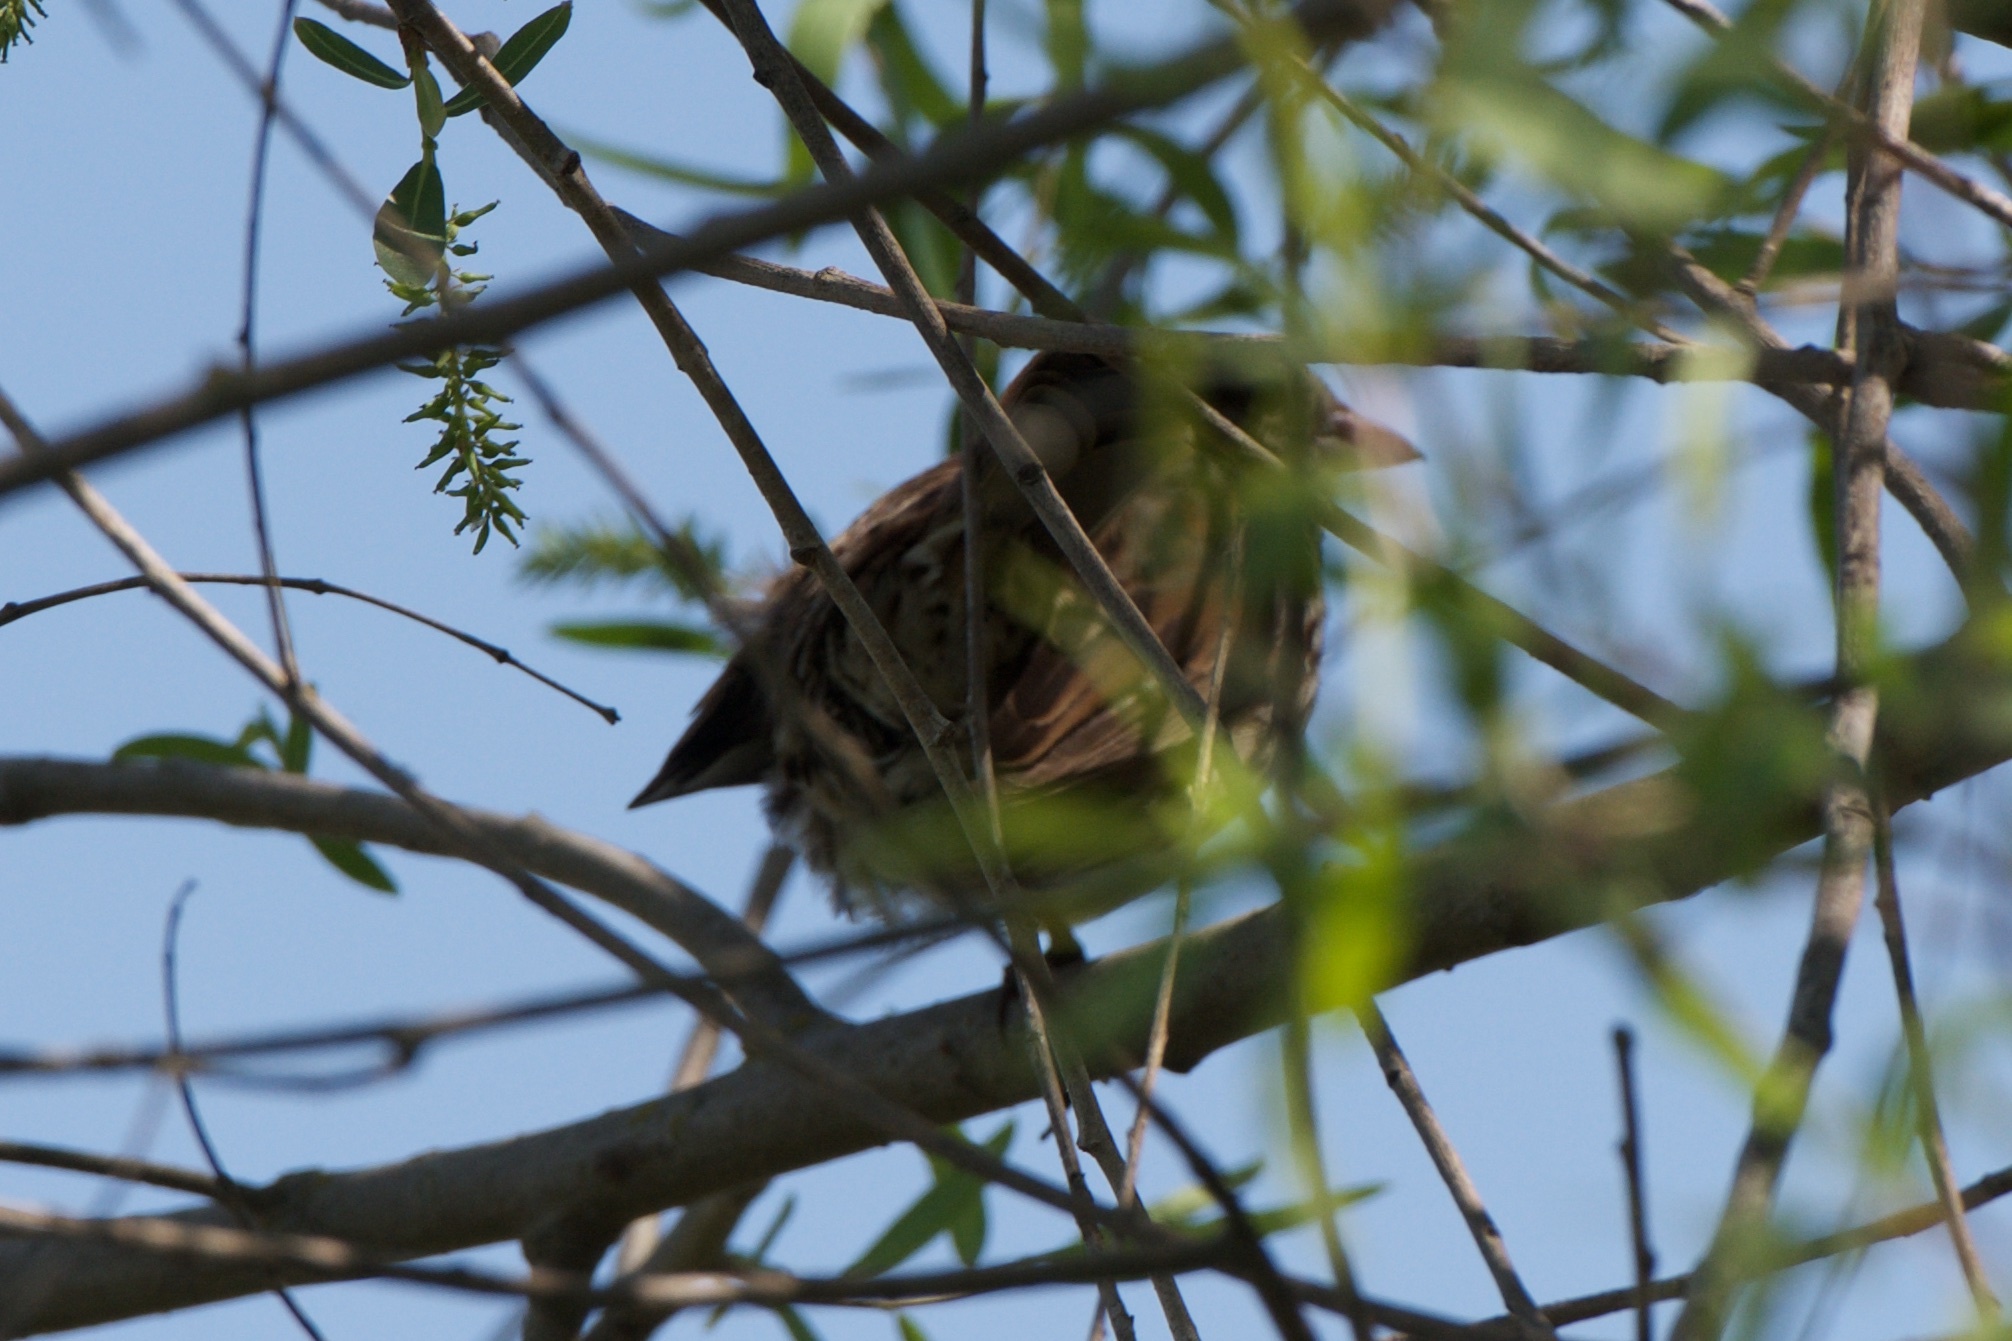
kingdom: Animalia
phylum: Chordata
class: Aves
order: Passeriformes
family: Passerellidae
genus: Melospiza
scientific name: Melospiza melodia
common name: Song sparrow
